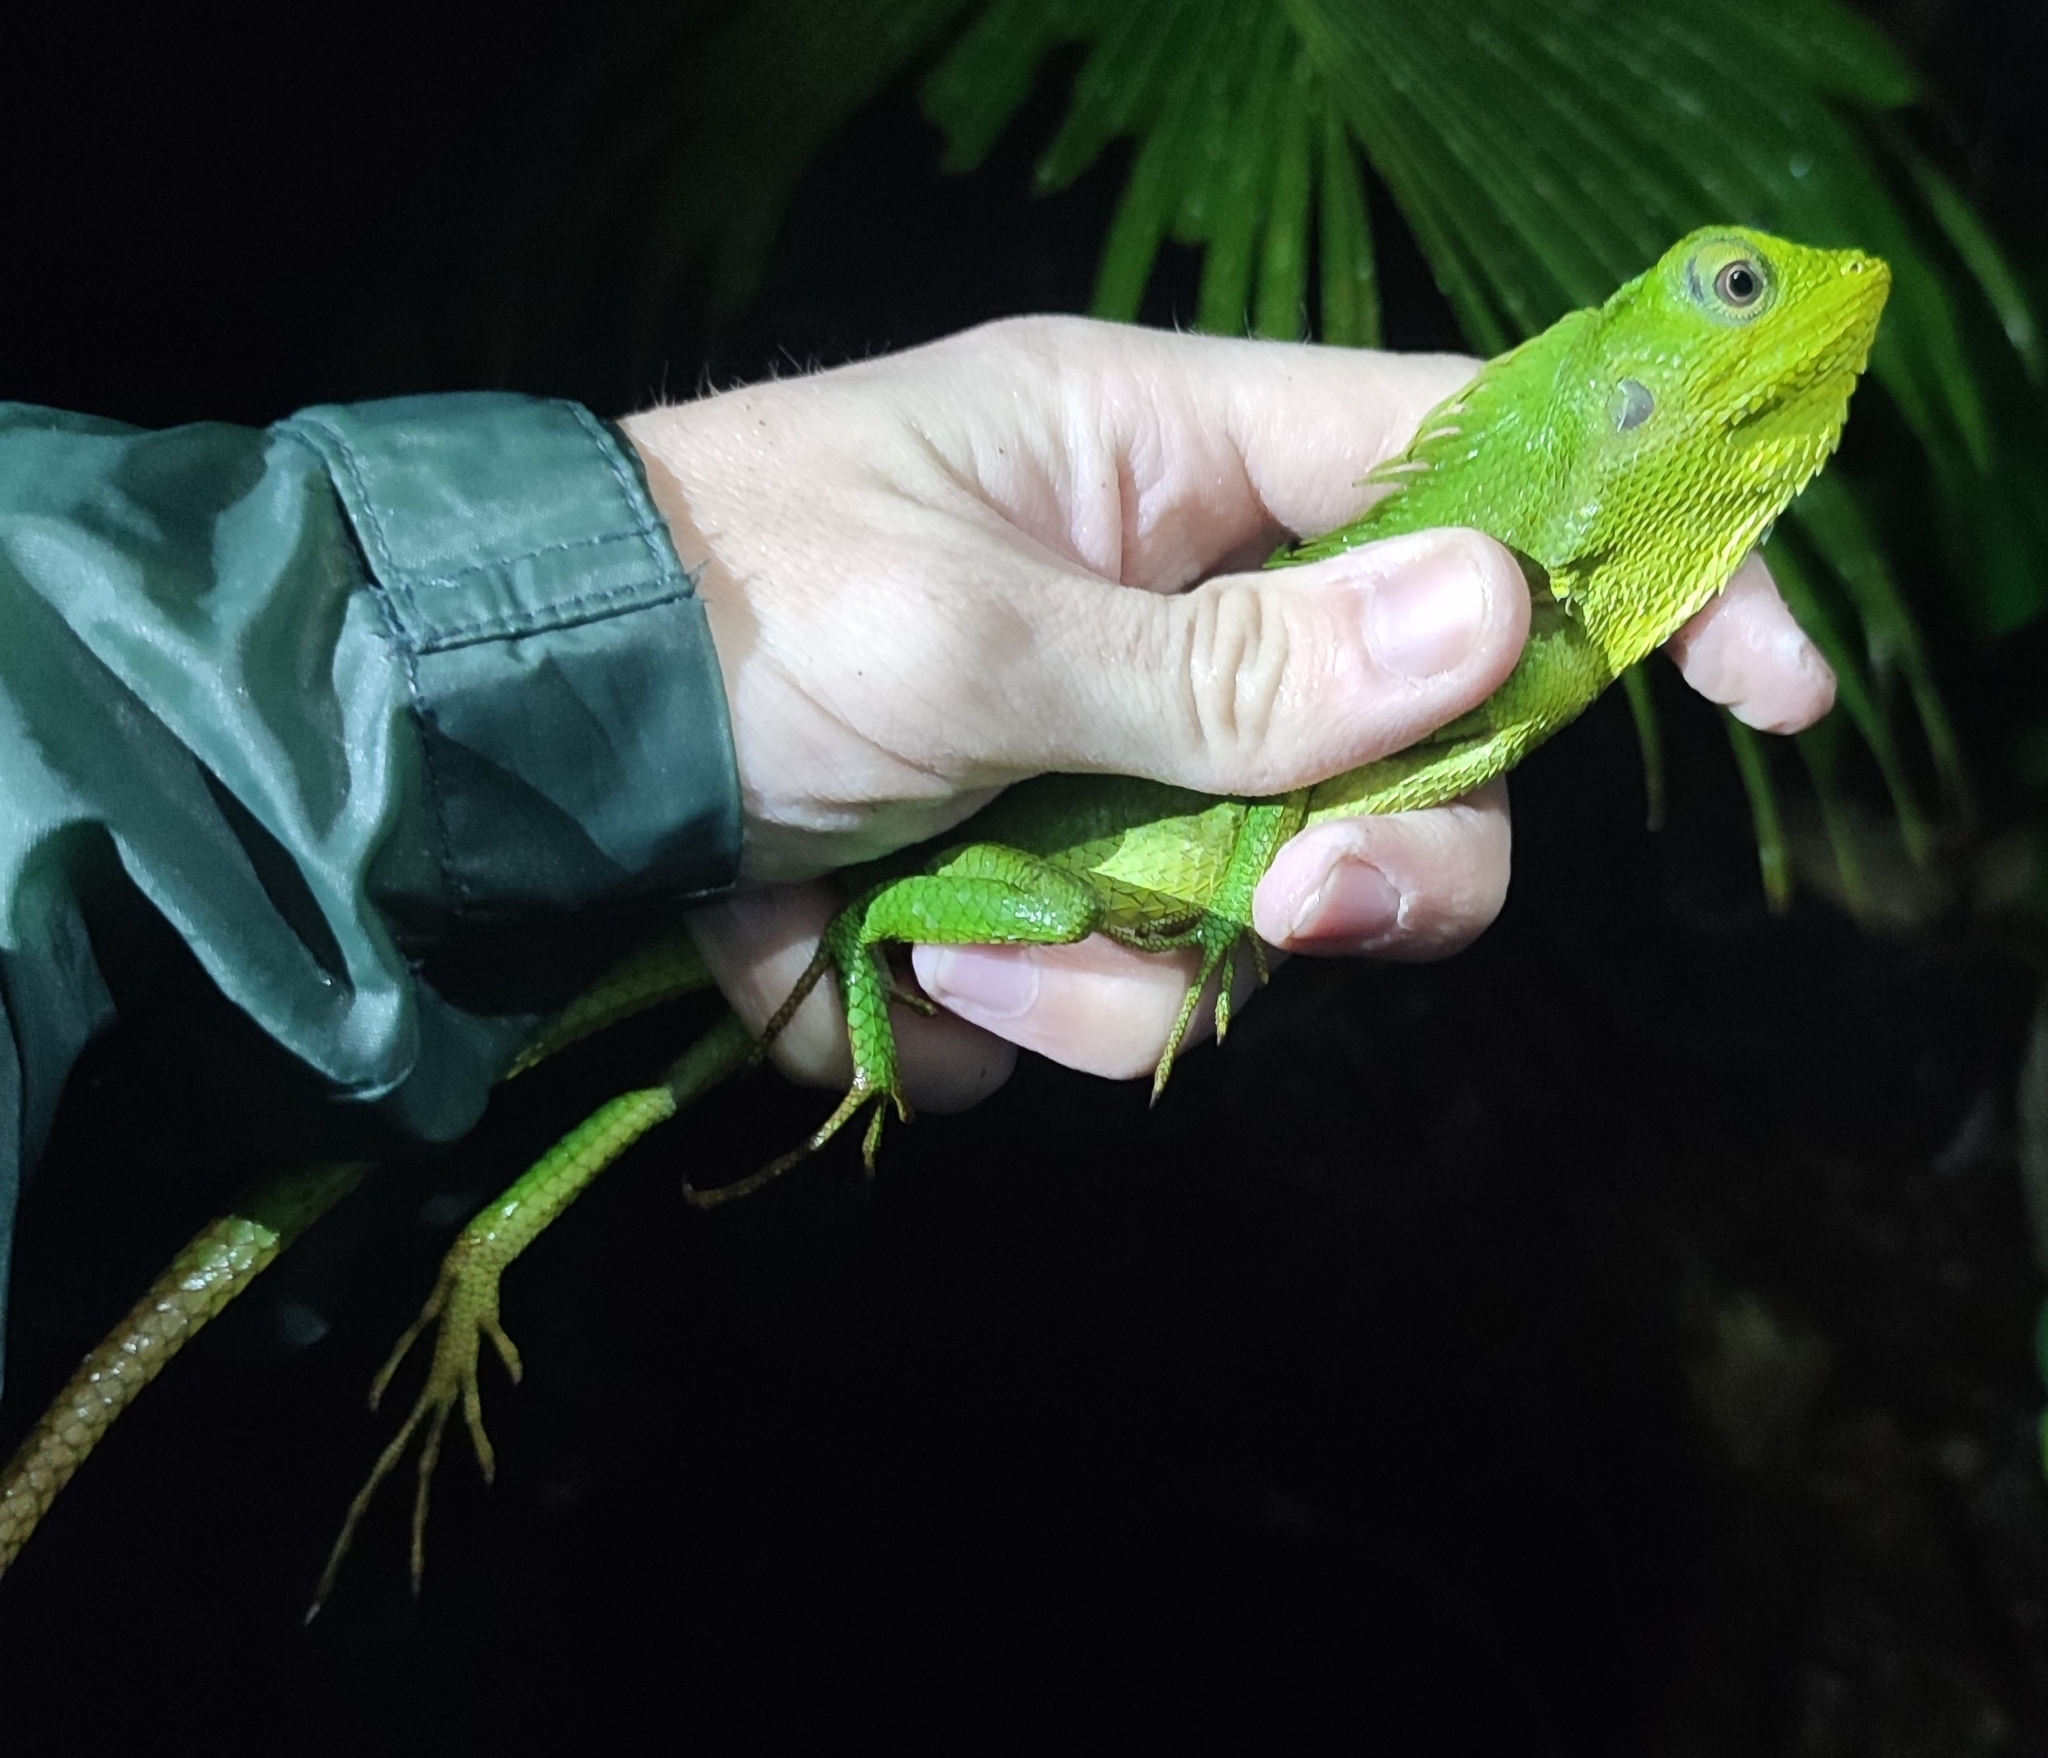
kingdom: Animalia
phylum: Chordata
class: Squamata
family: Agamidae
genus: Bronchocela
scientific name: Bronchocela jubata
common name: Maned forest lizard
